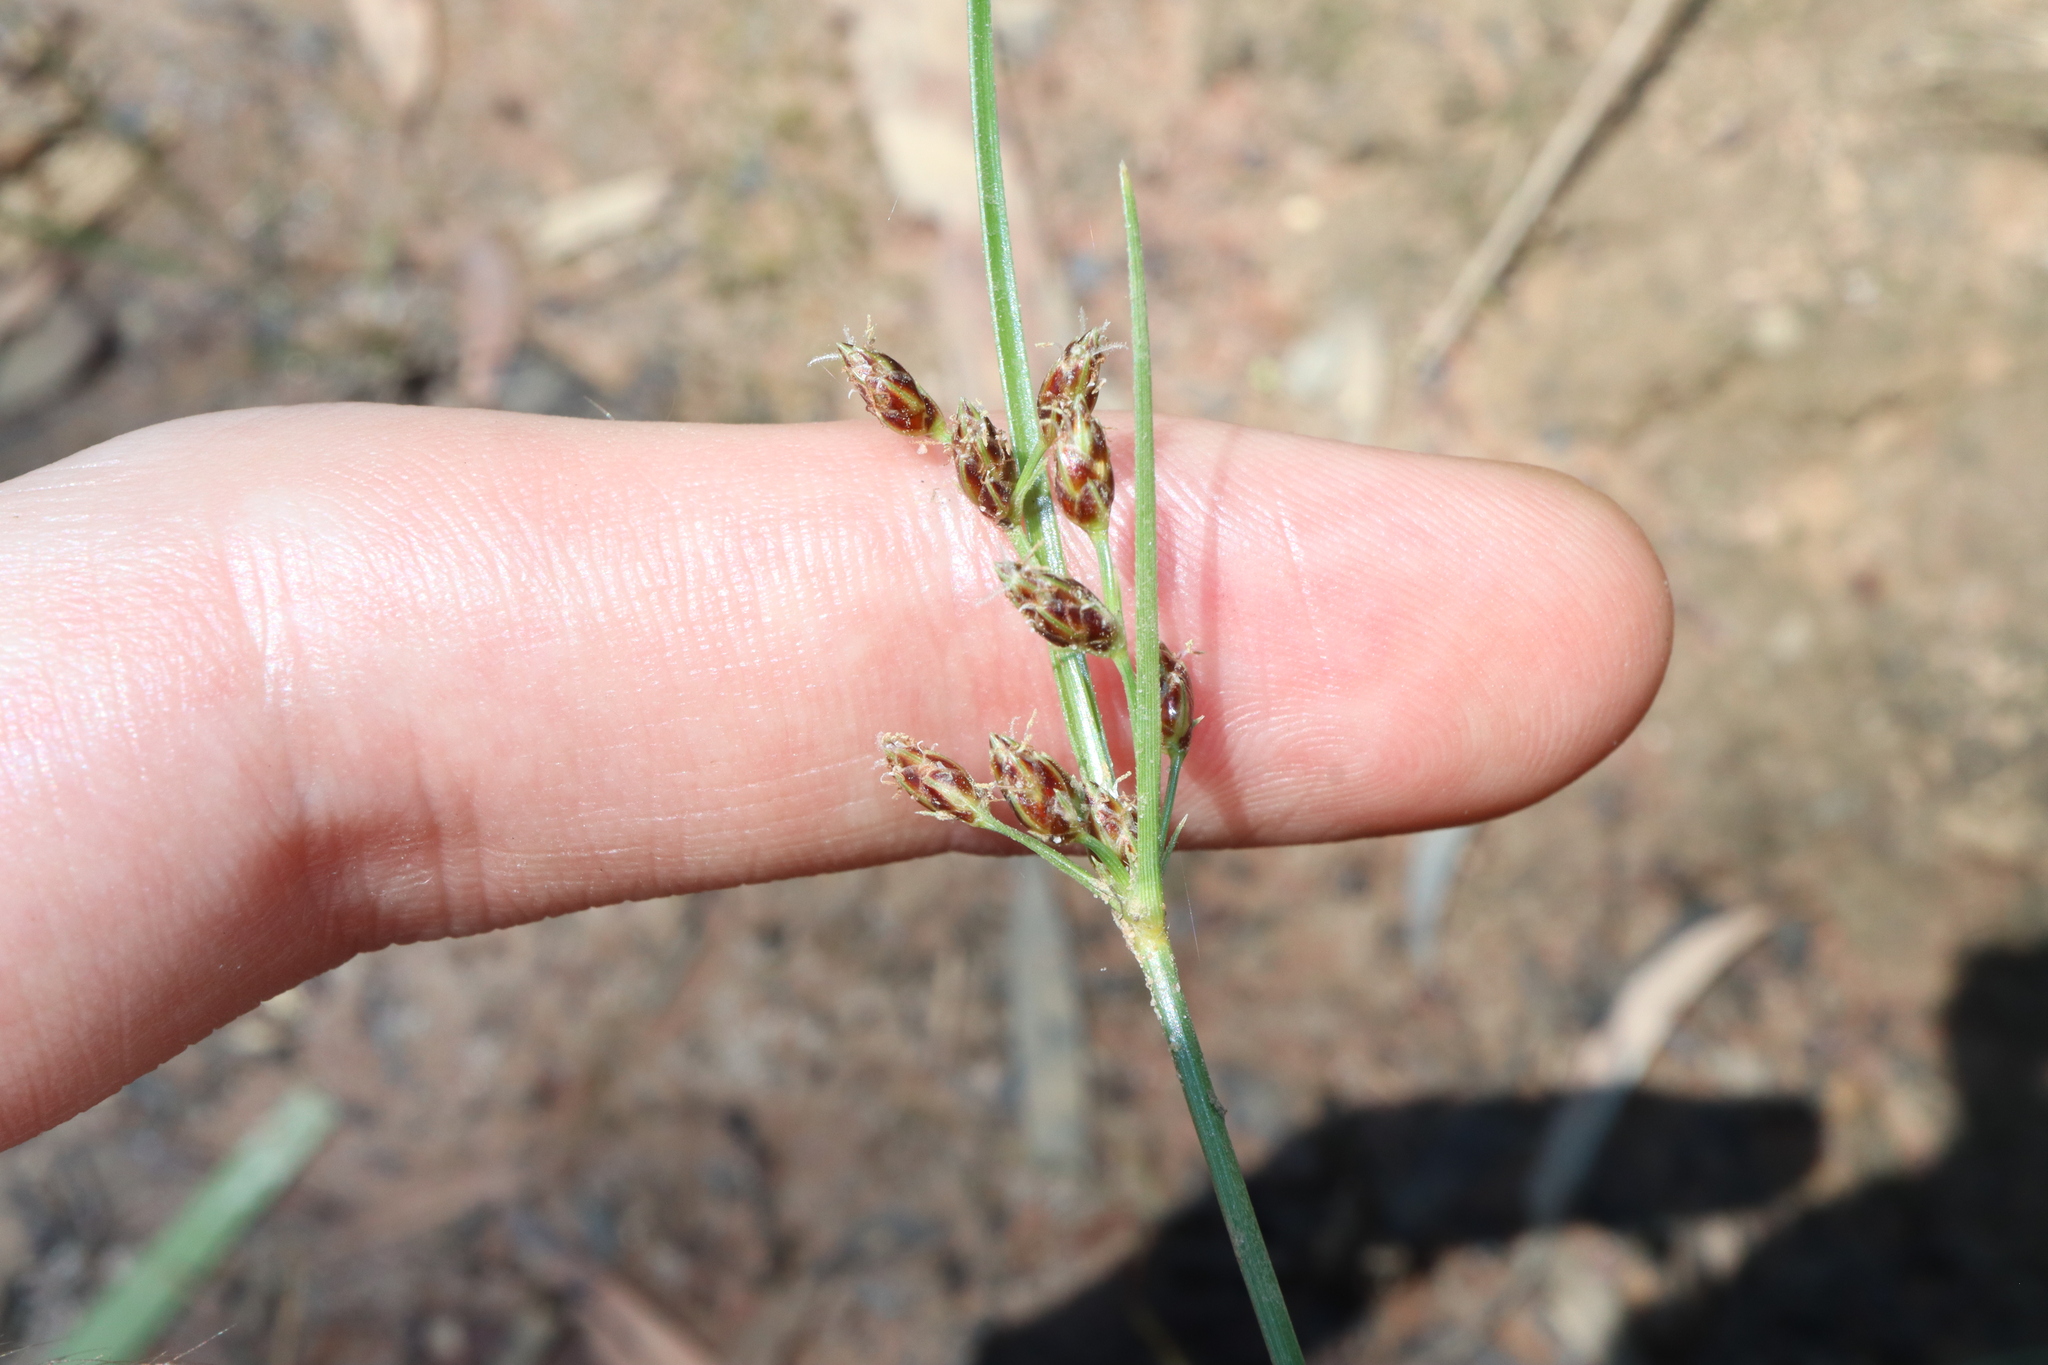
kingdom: Plantae
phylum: Tracheophyta
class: Liliopsida
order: Poales
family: Cyperaceae
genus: Fimbristylis
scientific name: Fimbristylis dichotoma
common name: Forked fimbry
